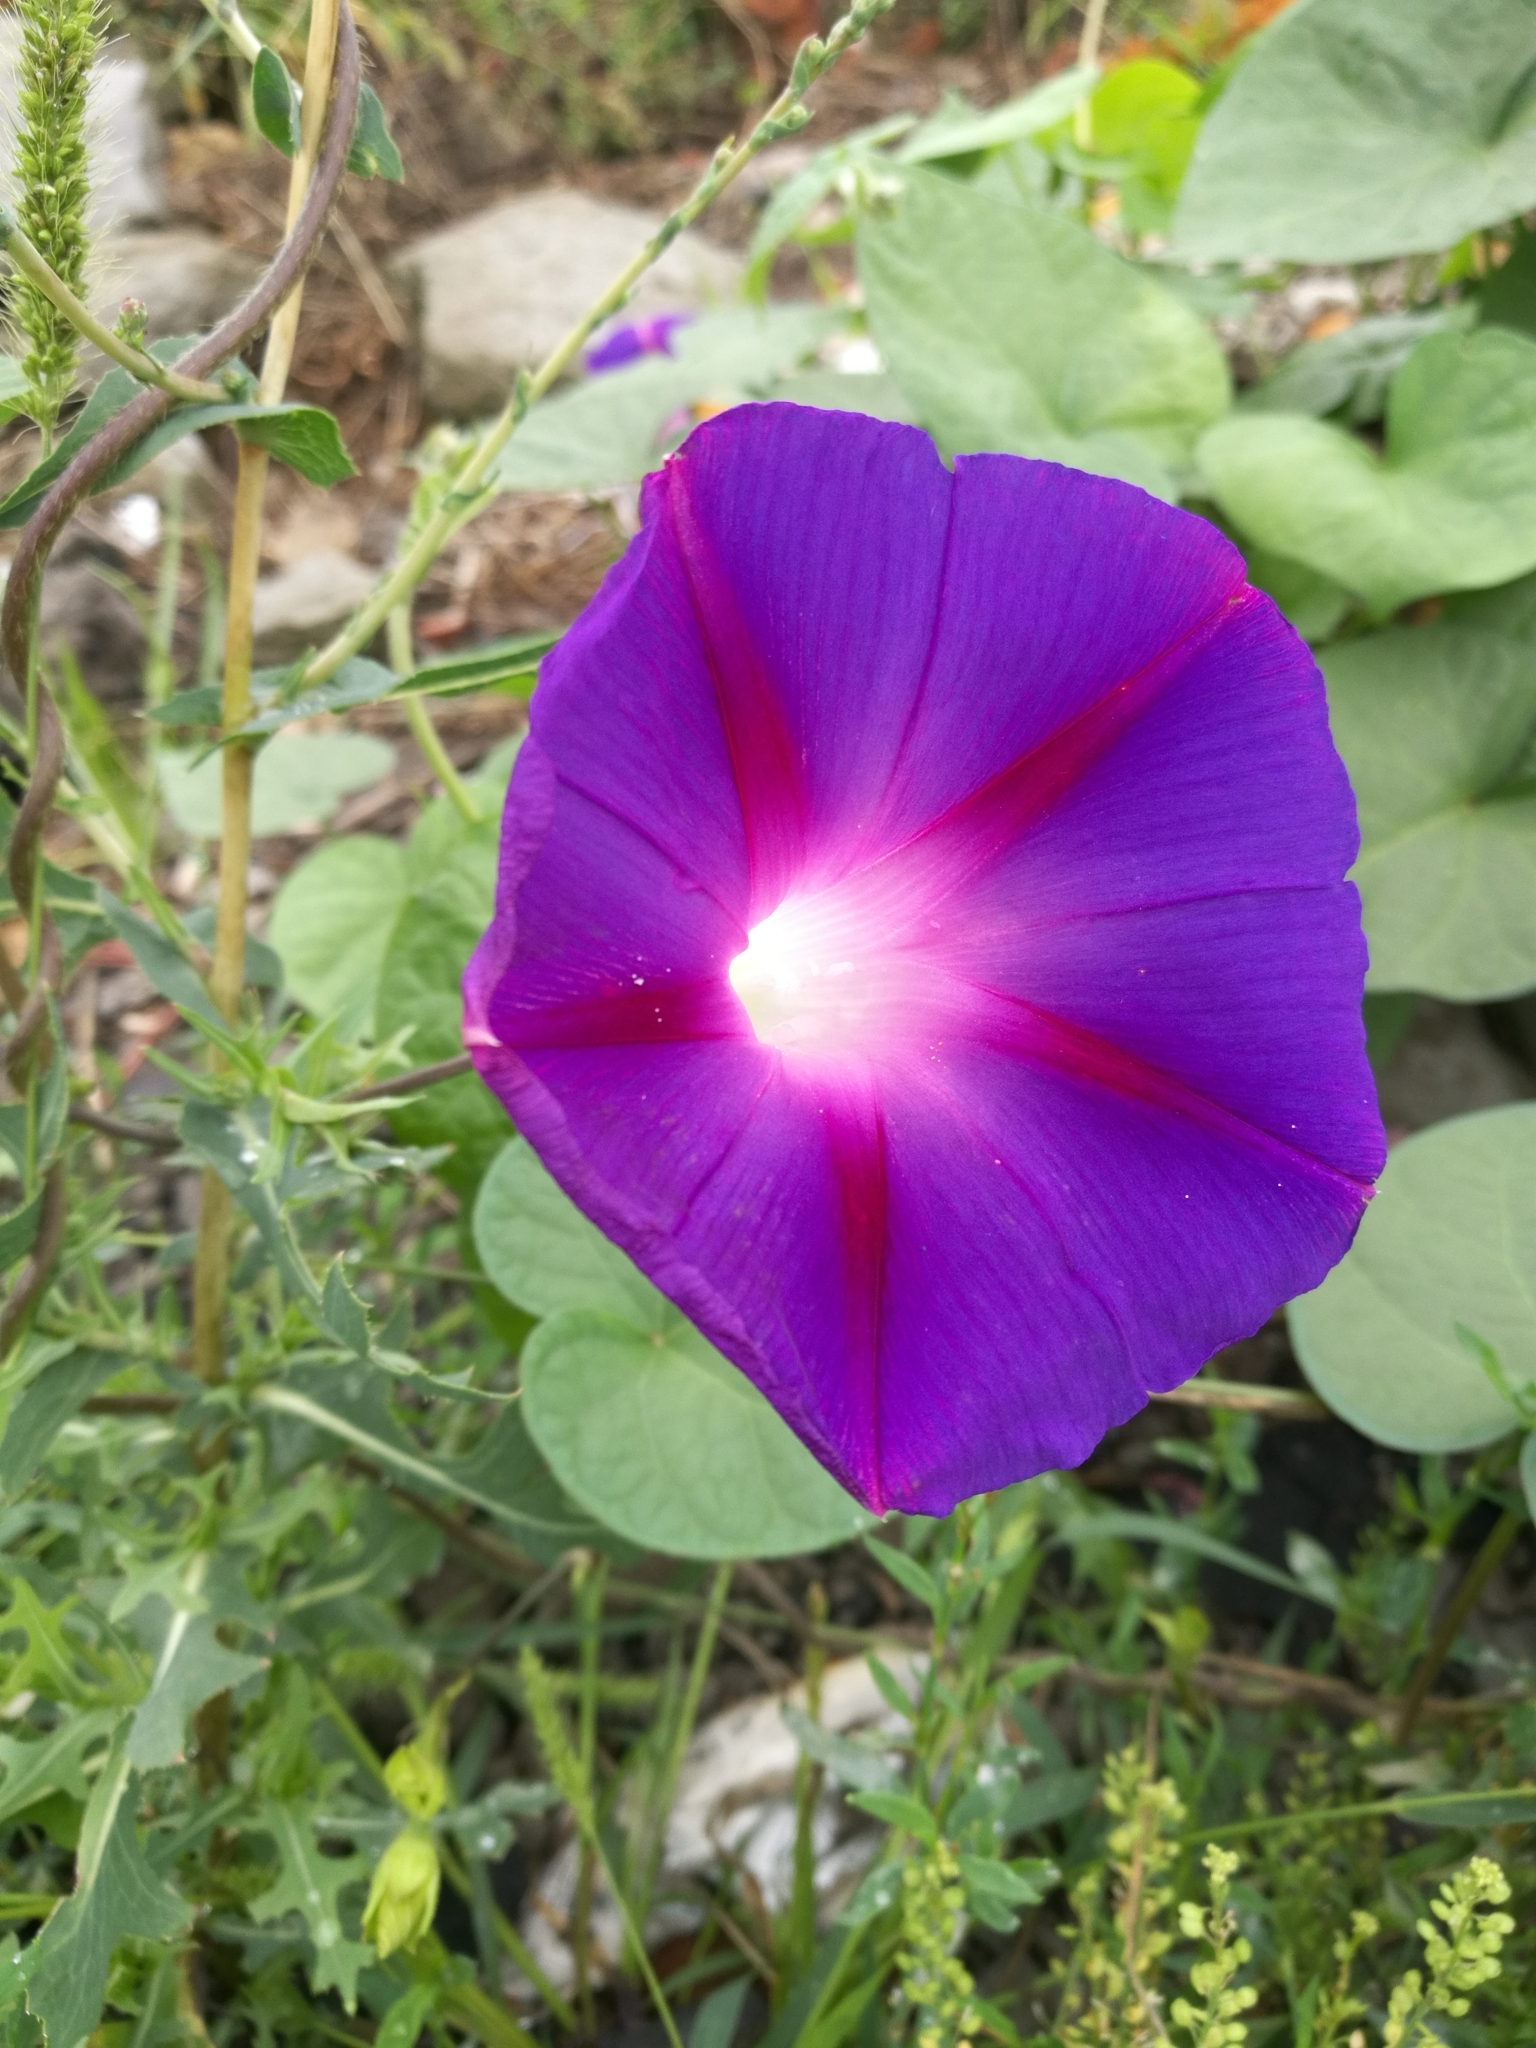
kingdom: Plantae
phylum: Tracheophyta
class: Magnoliopsida
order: Solanales
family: Convolvulaceae
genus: Ipomoea
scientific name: Ipomoea purpurea
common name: Common morning-glory
